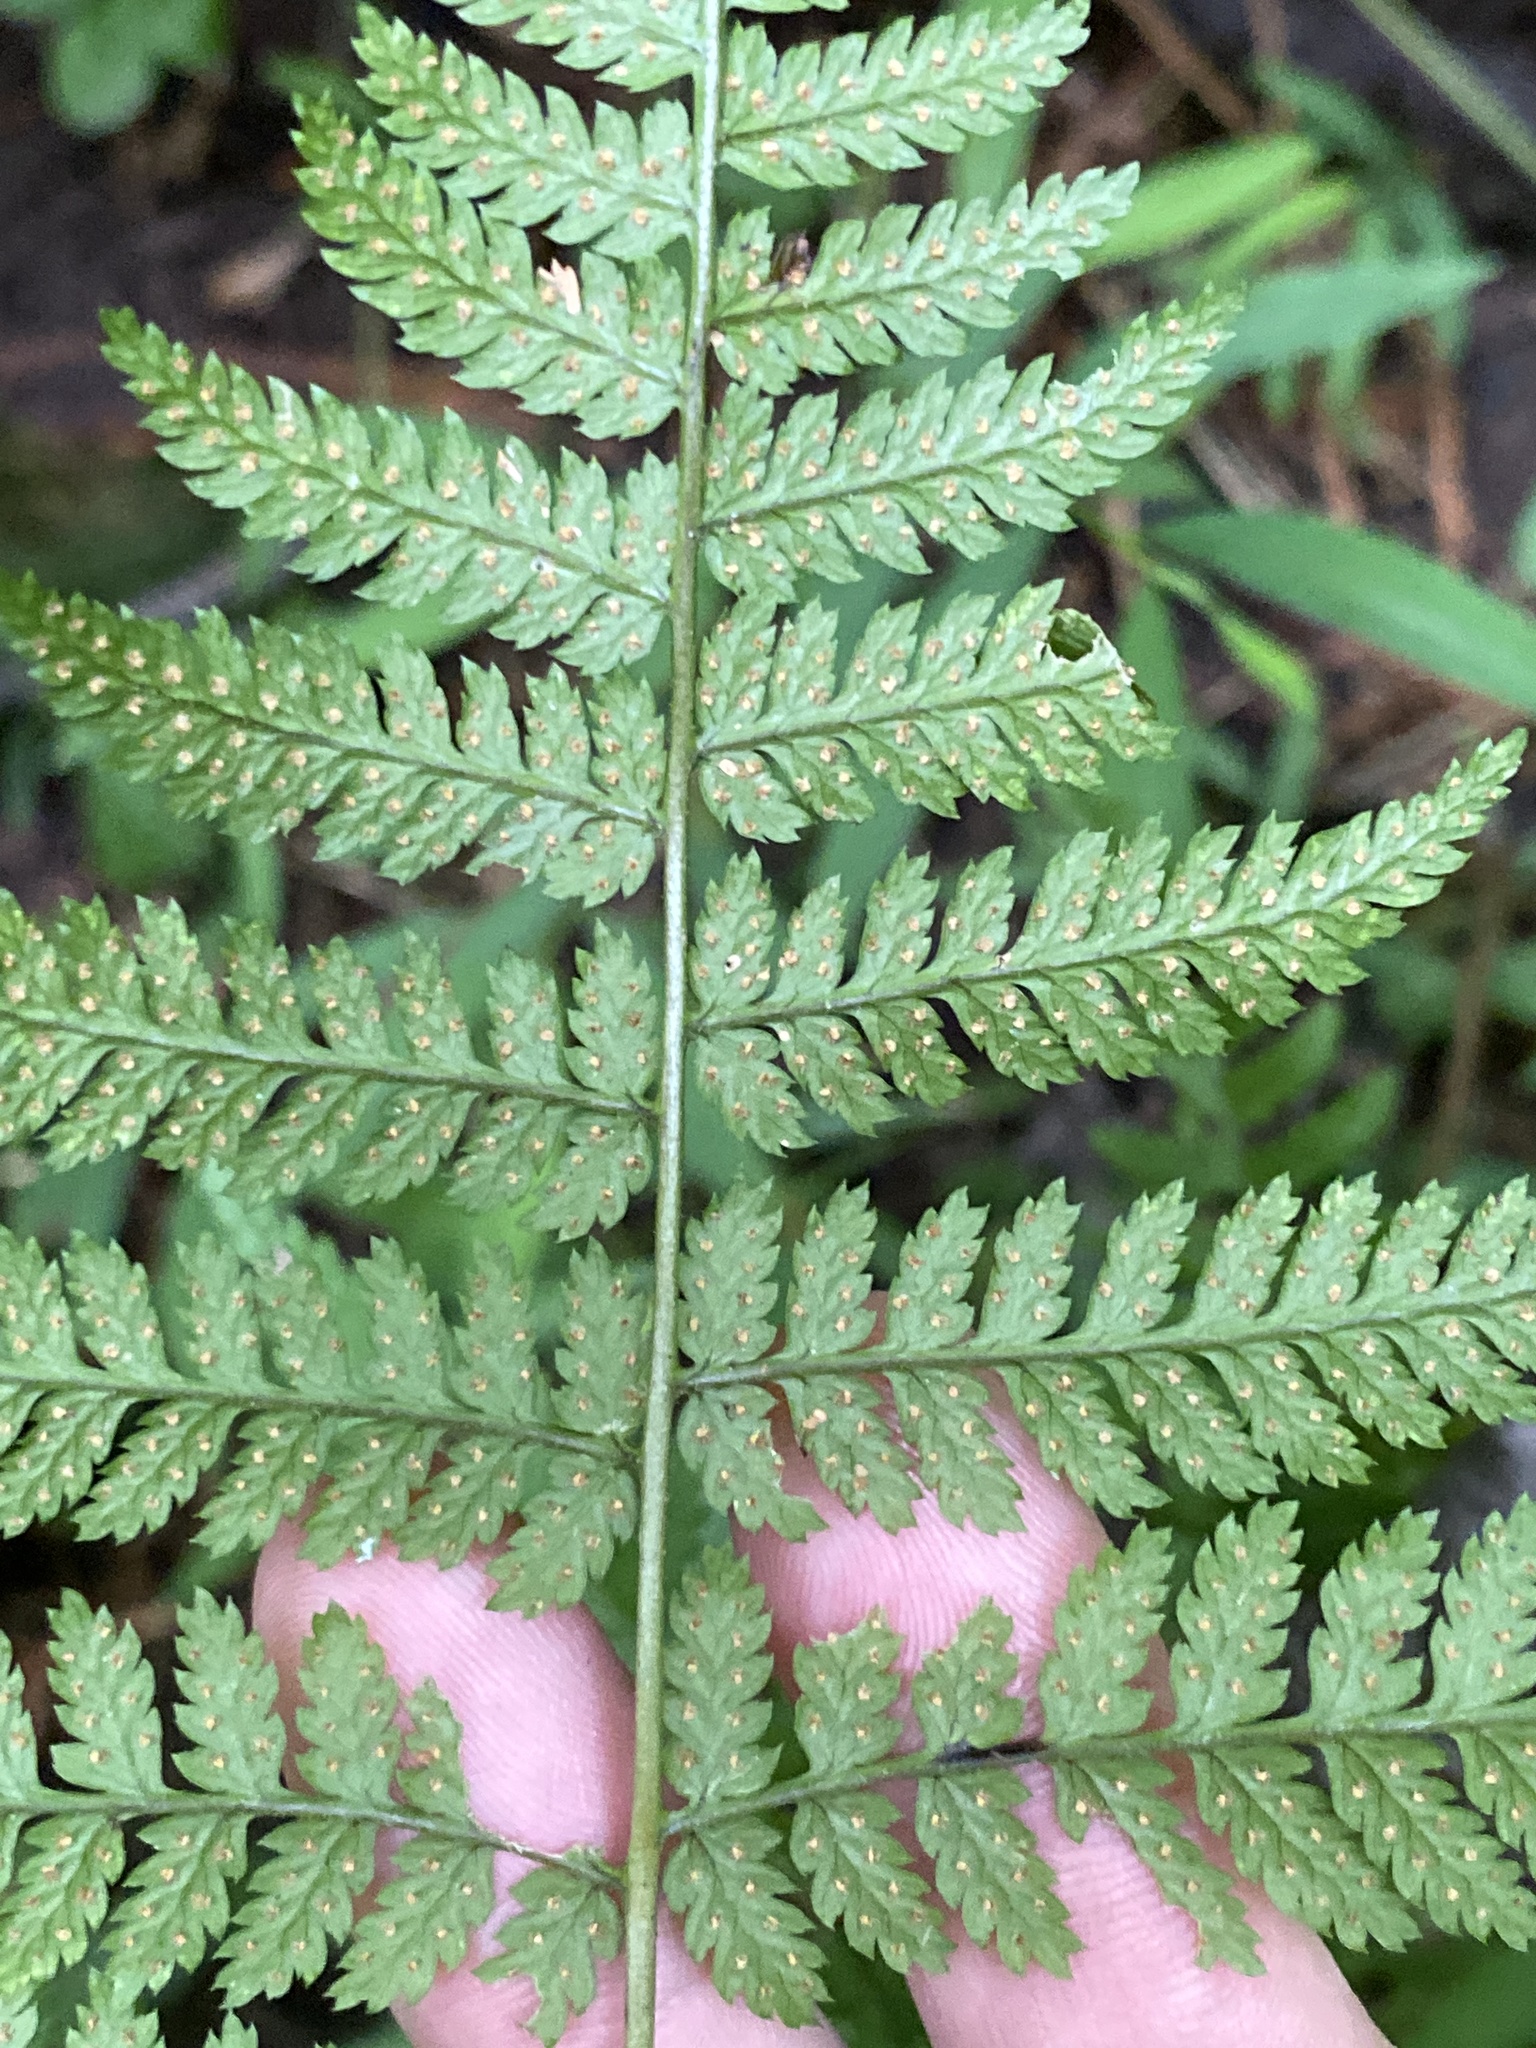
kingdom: Plantae
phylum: Tracheophyta
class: Polypodiopsida
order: Polypodiales
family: Dryopteridaceae
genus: Dryopteris
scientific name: Dryopteris intermedia
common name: Evergreen wood fern
